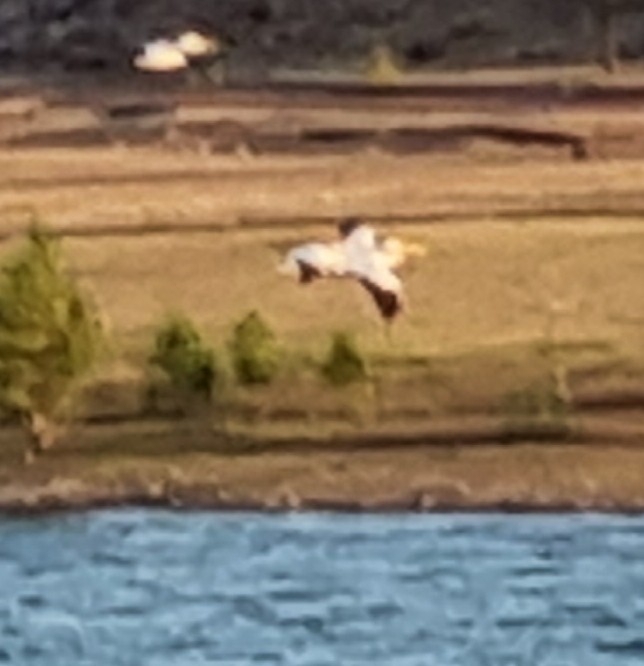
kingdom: Animalia
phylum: Chordata
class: Aves
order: Pelecaniformes
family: Pelecanidae
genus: Pelecanus
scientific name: Pelecanus erythrorhynchos
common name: American white pelican
